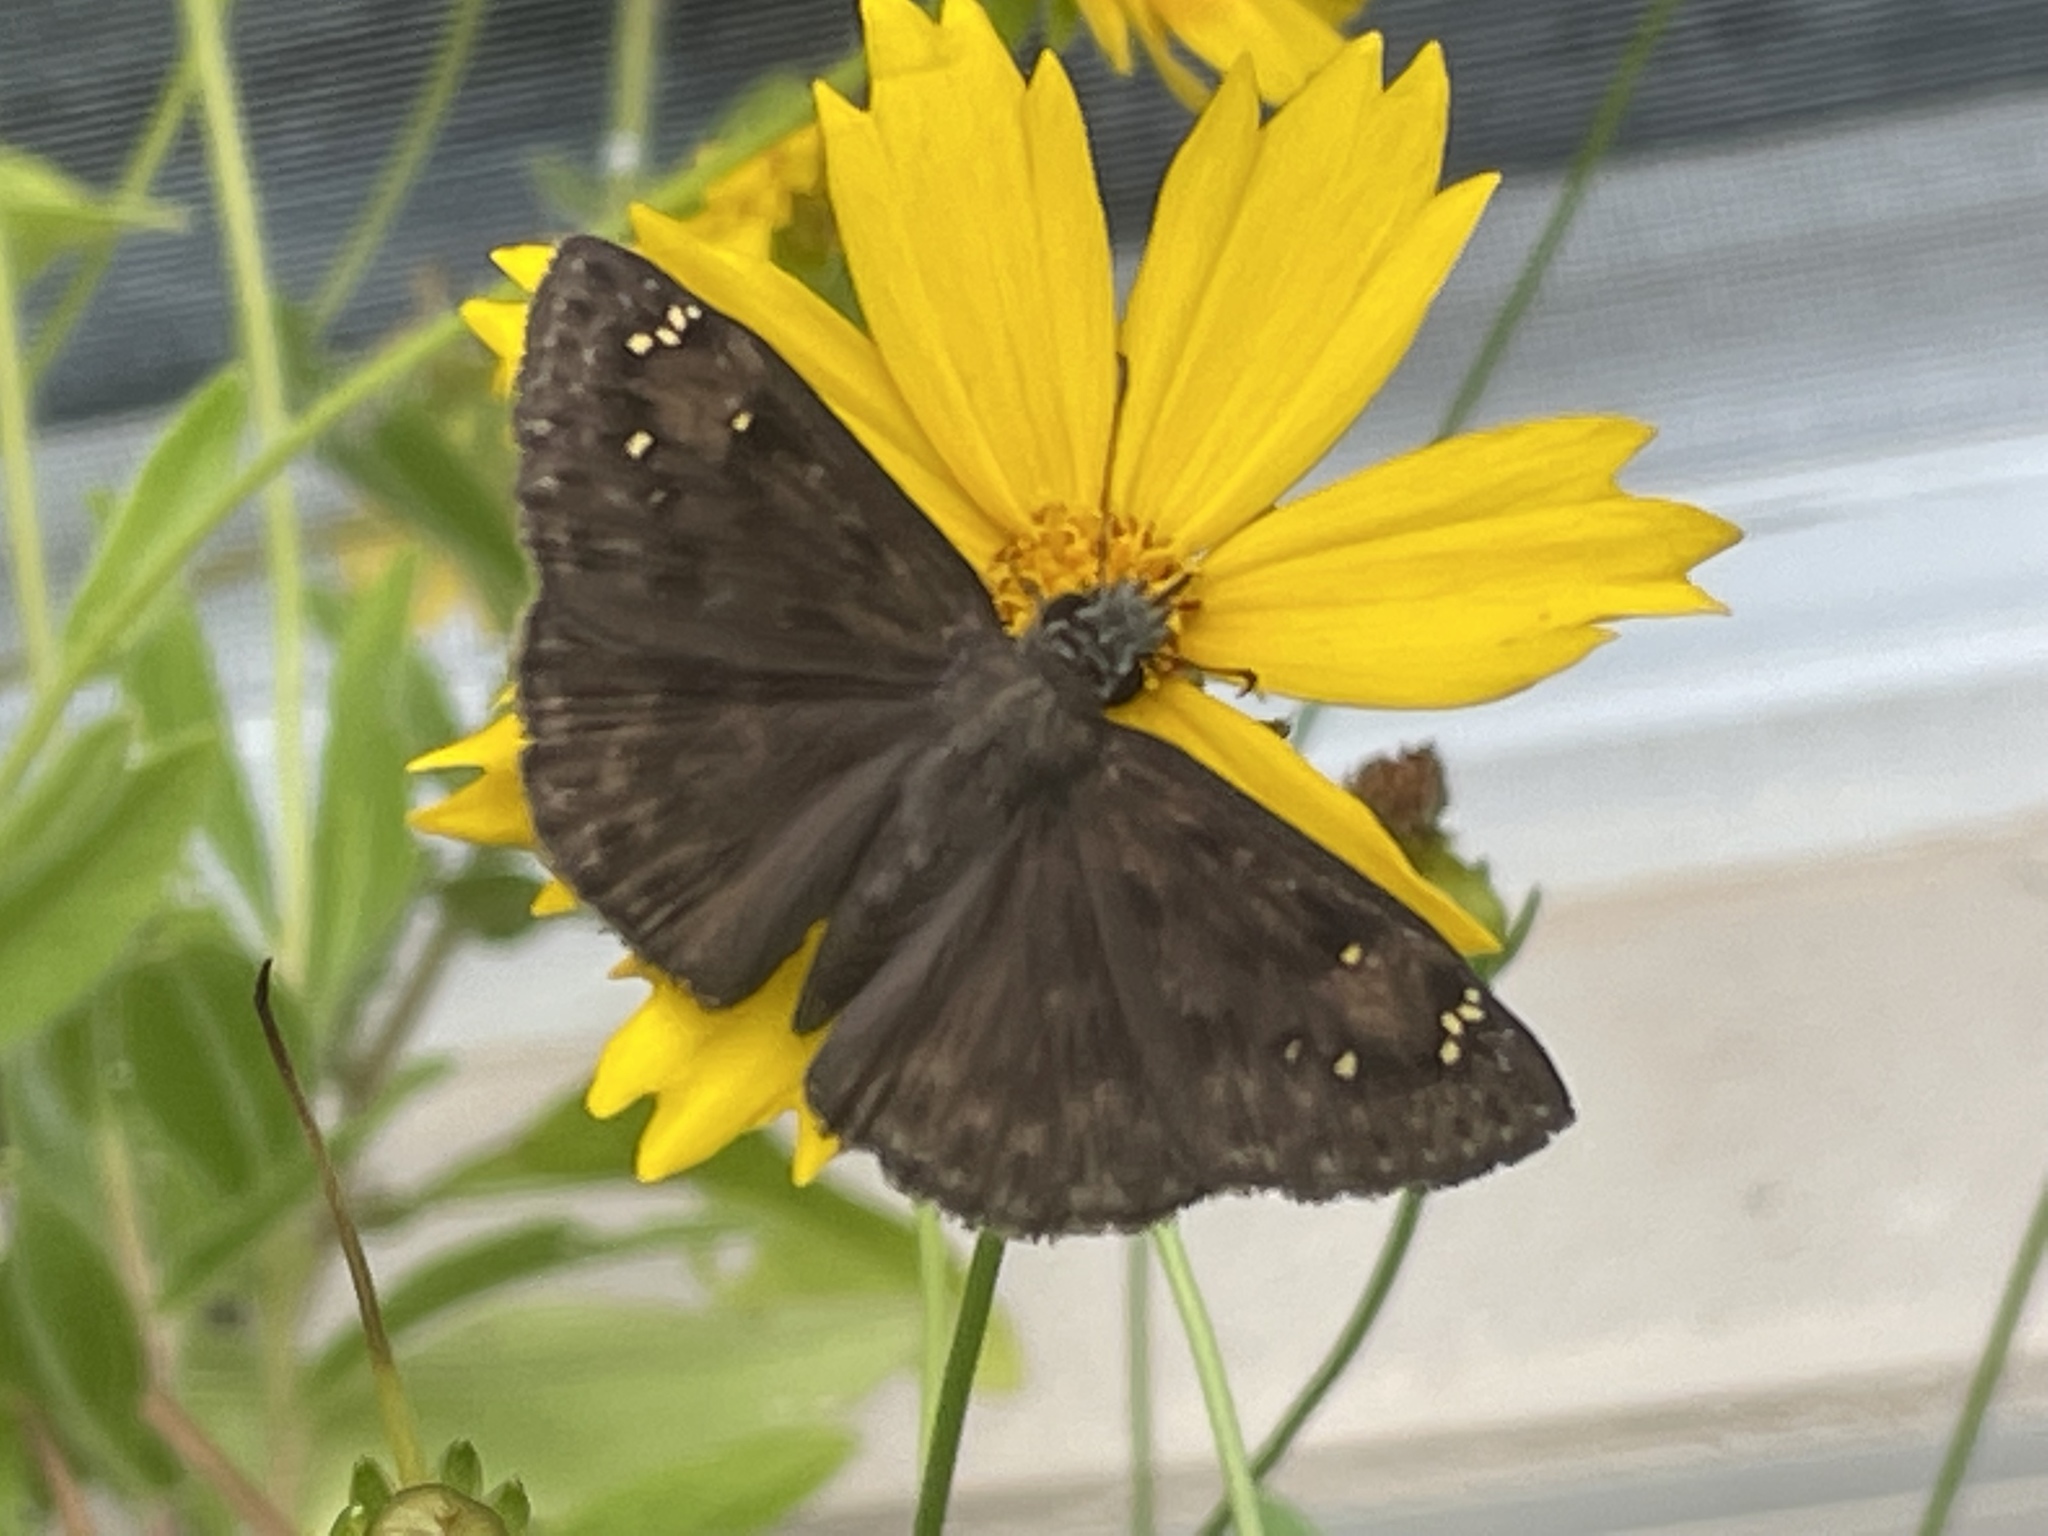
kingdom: Animalia
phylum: Arthropoda
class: Insecta
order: Lepidoptera
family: Hesperiidae
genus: Erynnis
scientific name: Erynnis horatius
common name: Horace's duskywing
